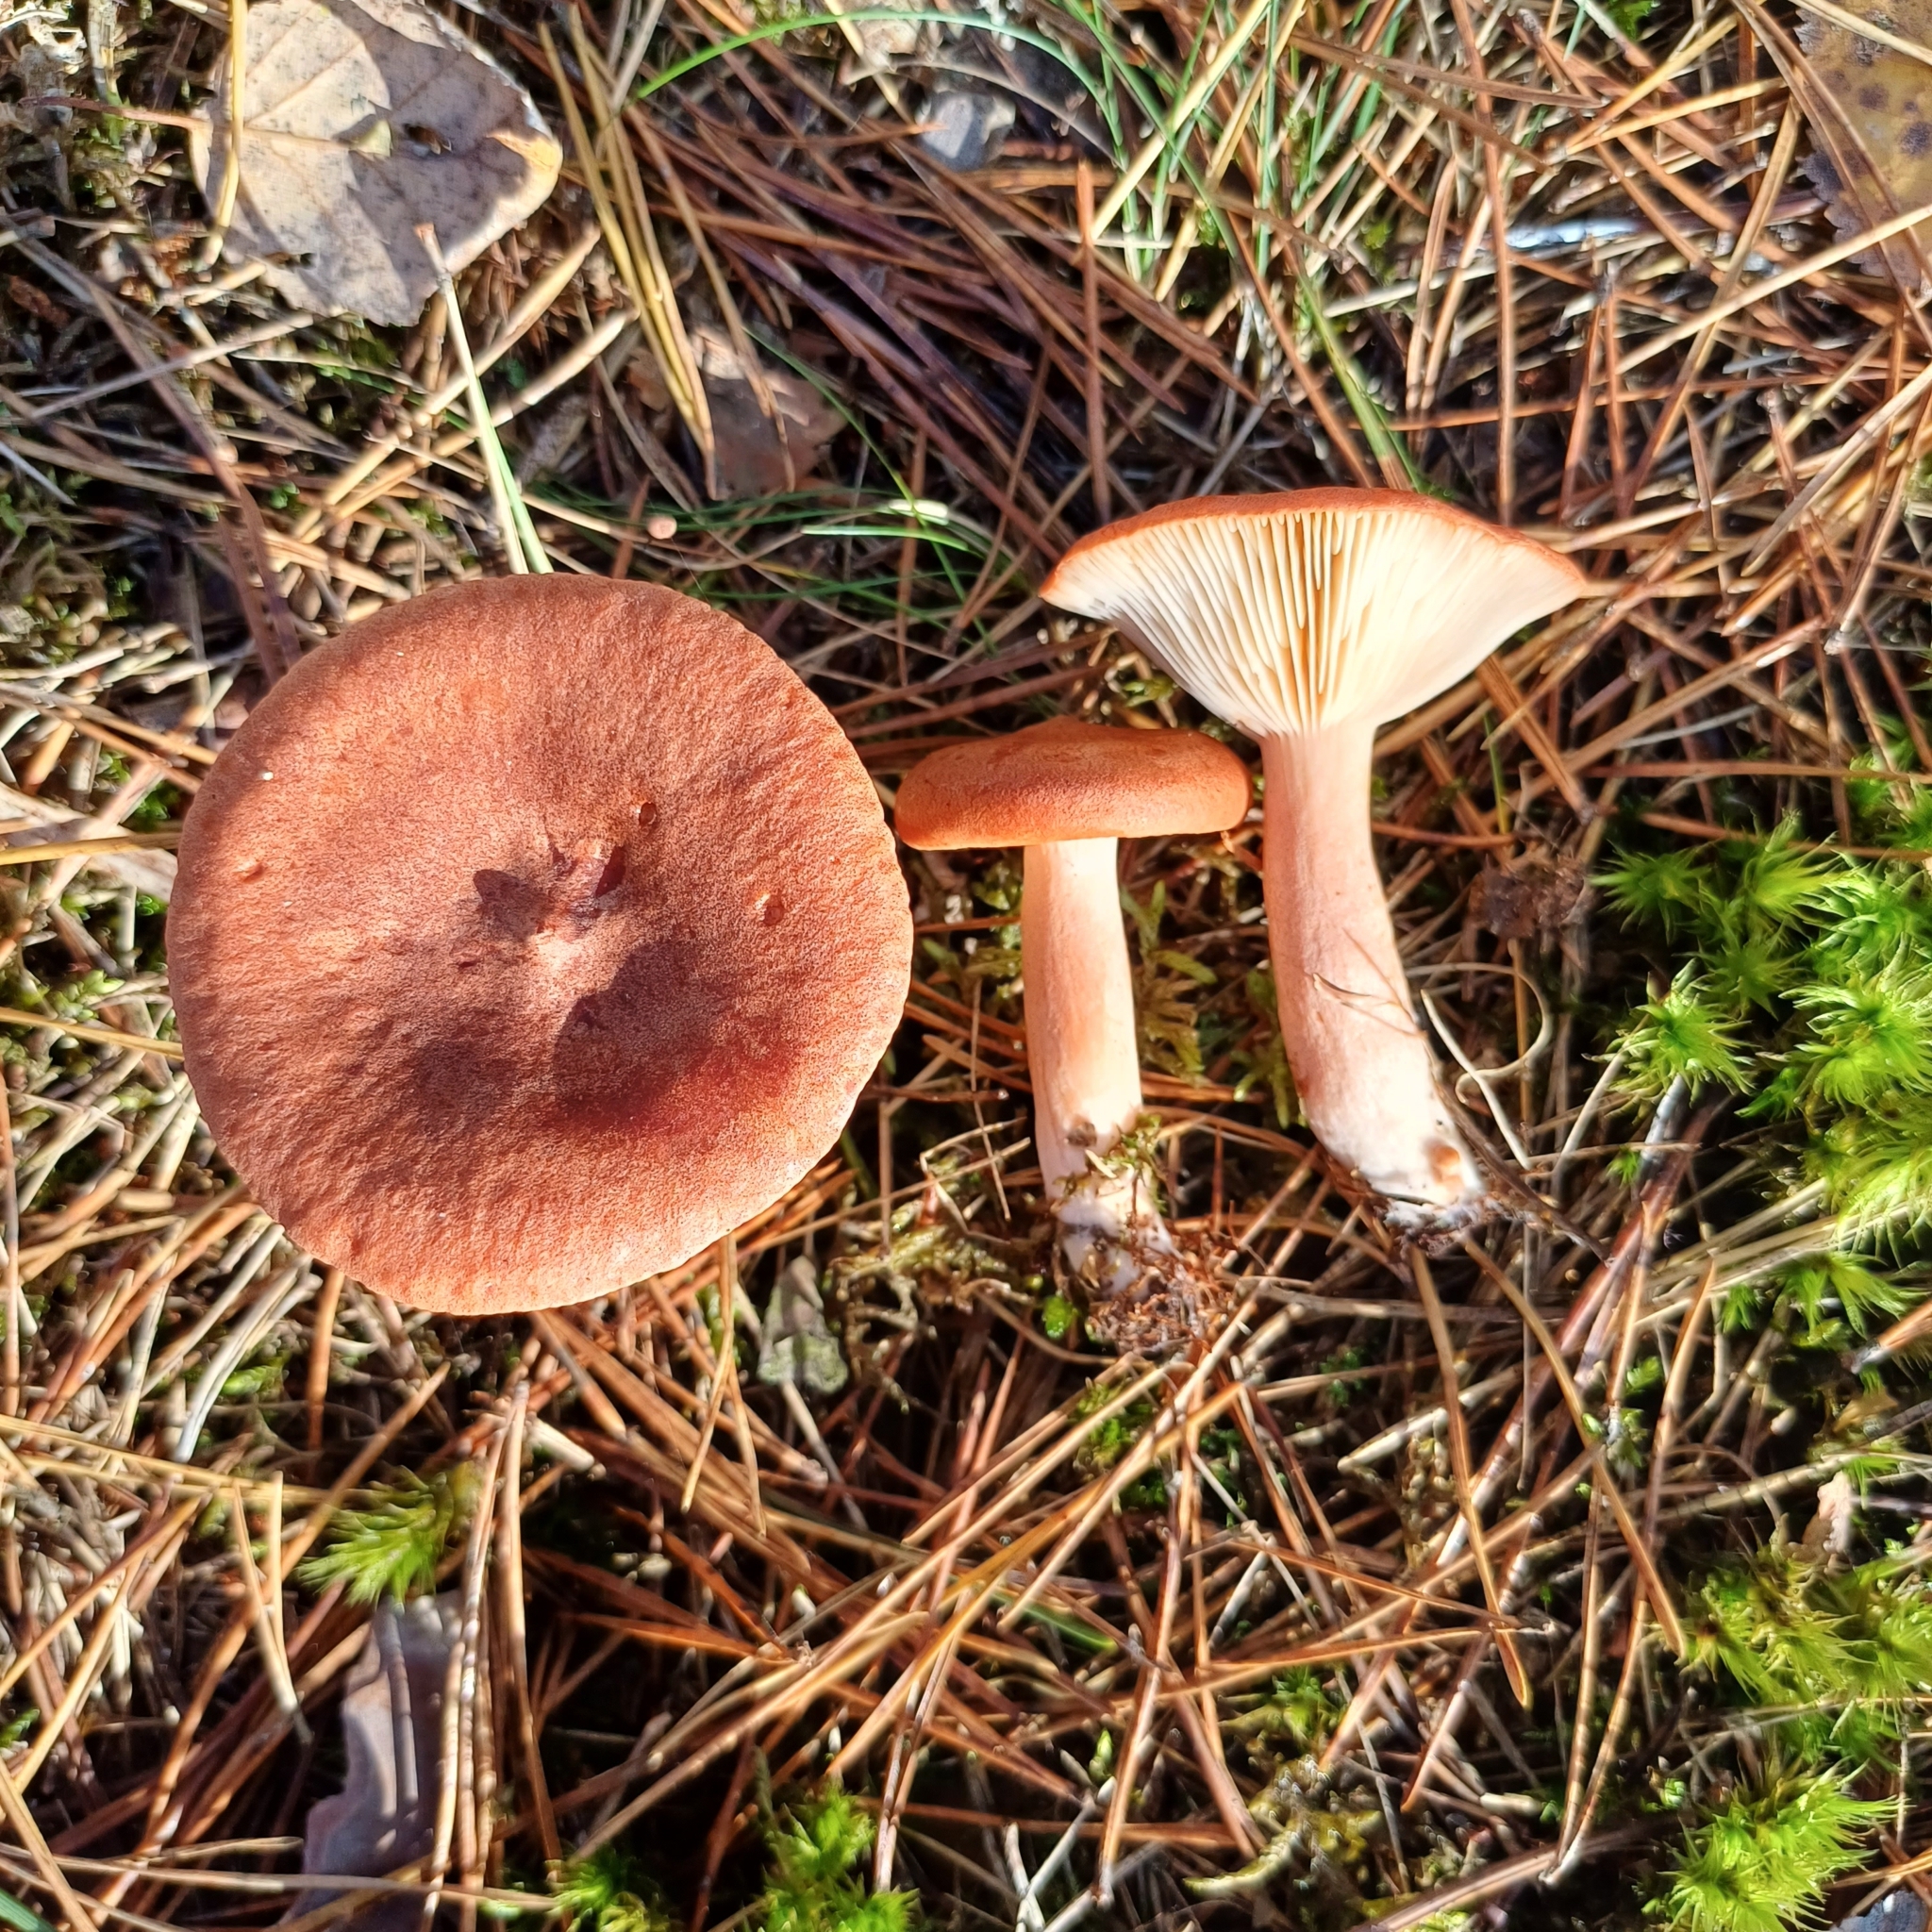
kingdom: Fungi
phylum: Basidiomycota
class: Agaricomycetes
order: Russulales
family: Russulaceae
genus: Lactarius
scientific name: Lactarius rufus
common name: Rufous milk-cap
